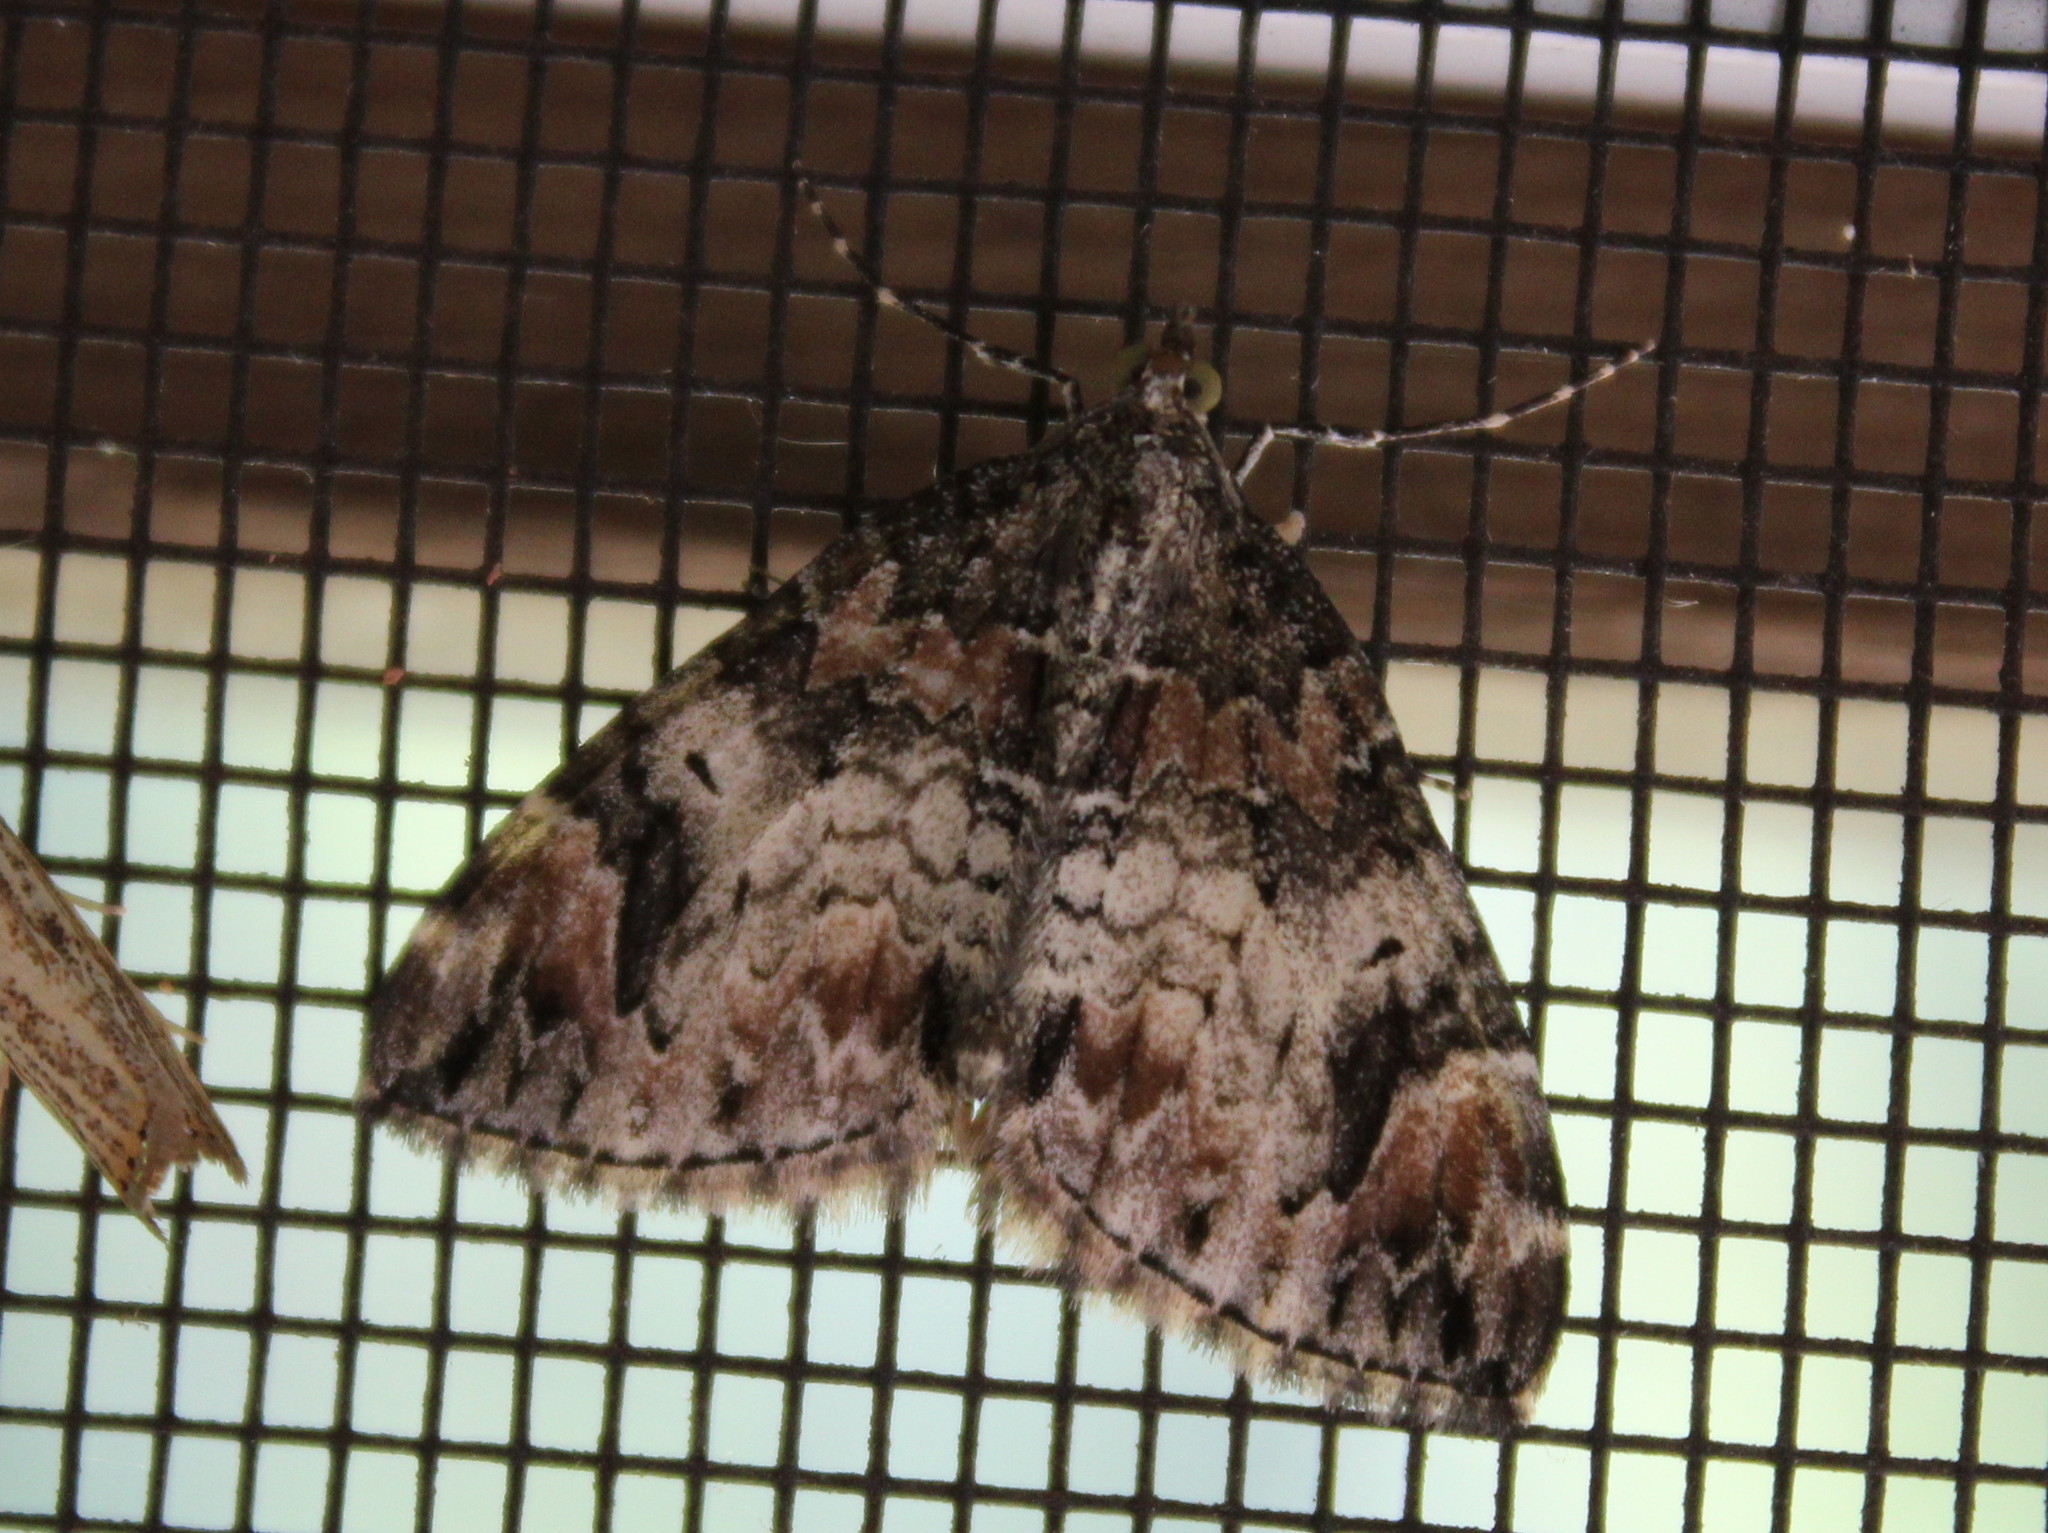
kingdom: Animalia
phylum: Arthropoda
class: Insecta
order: Lepidoptera
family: Geometridae
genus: Dysstroma
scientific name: Dysstroma citrata
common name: Dark marbled carpet
